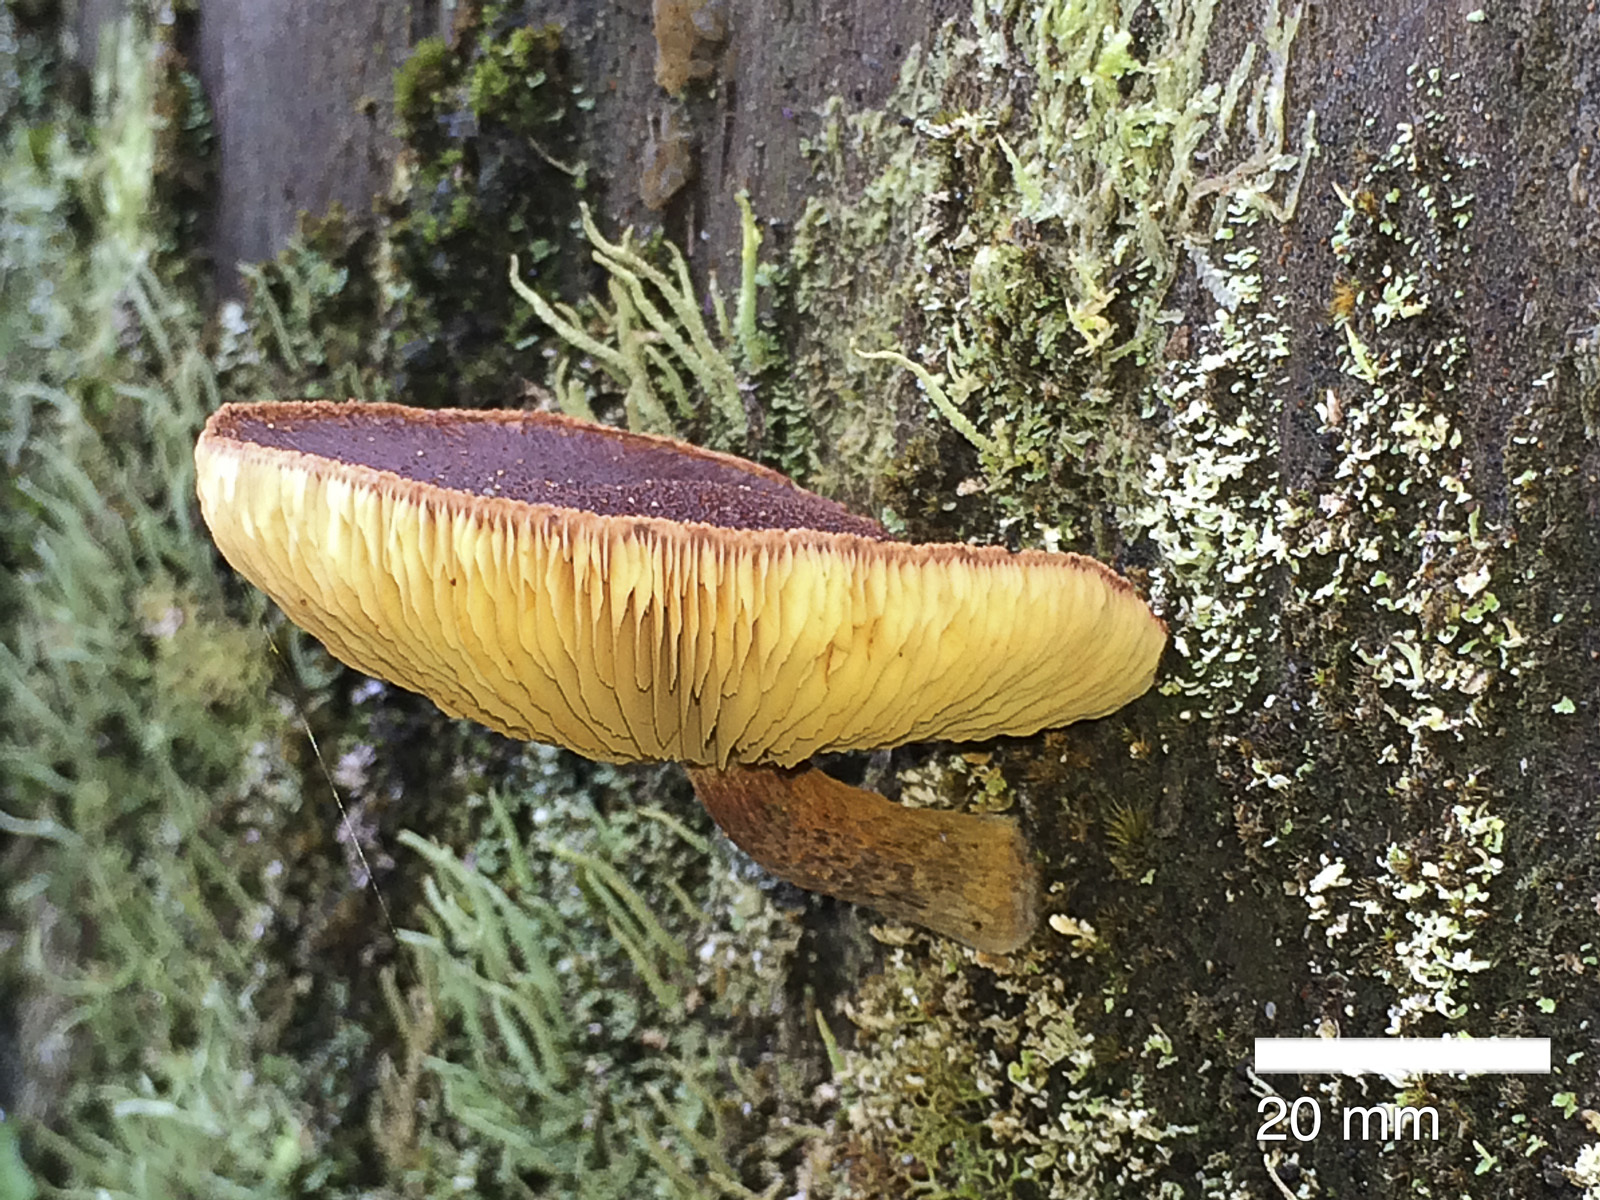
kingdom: Fungi
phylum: Basidiomycota
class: Agaricomycetes
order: Agaricales
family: Hymenogastraceae
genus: Gymnopilus
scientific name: Gymnopilus purpuratus
